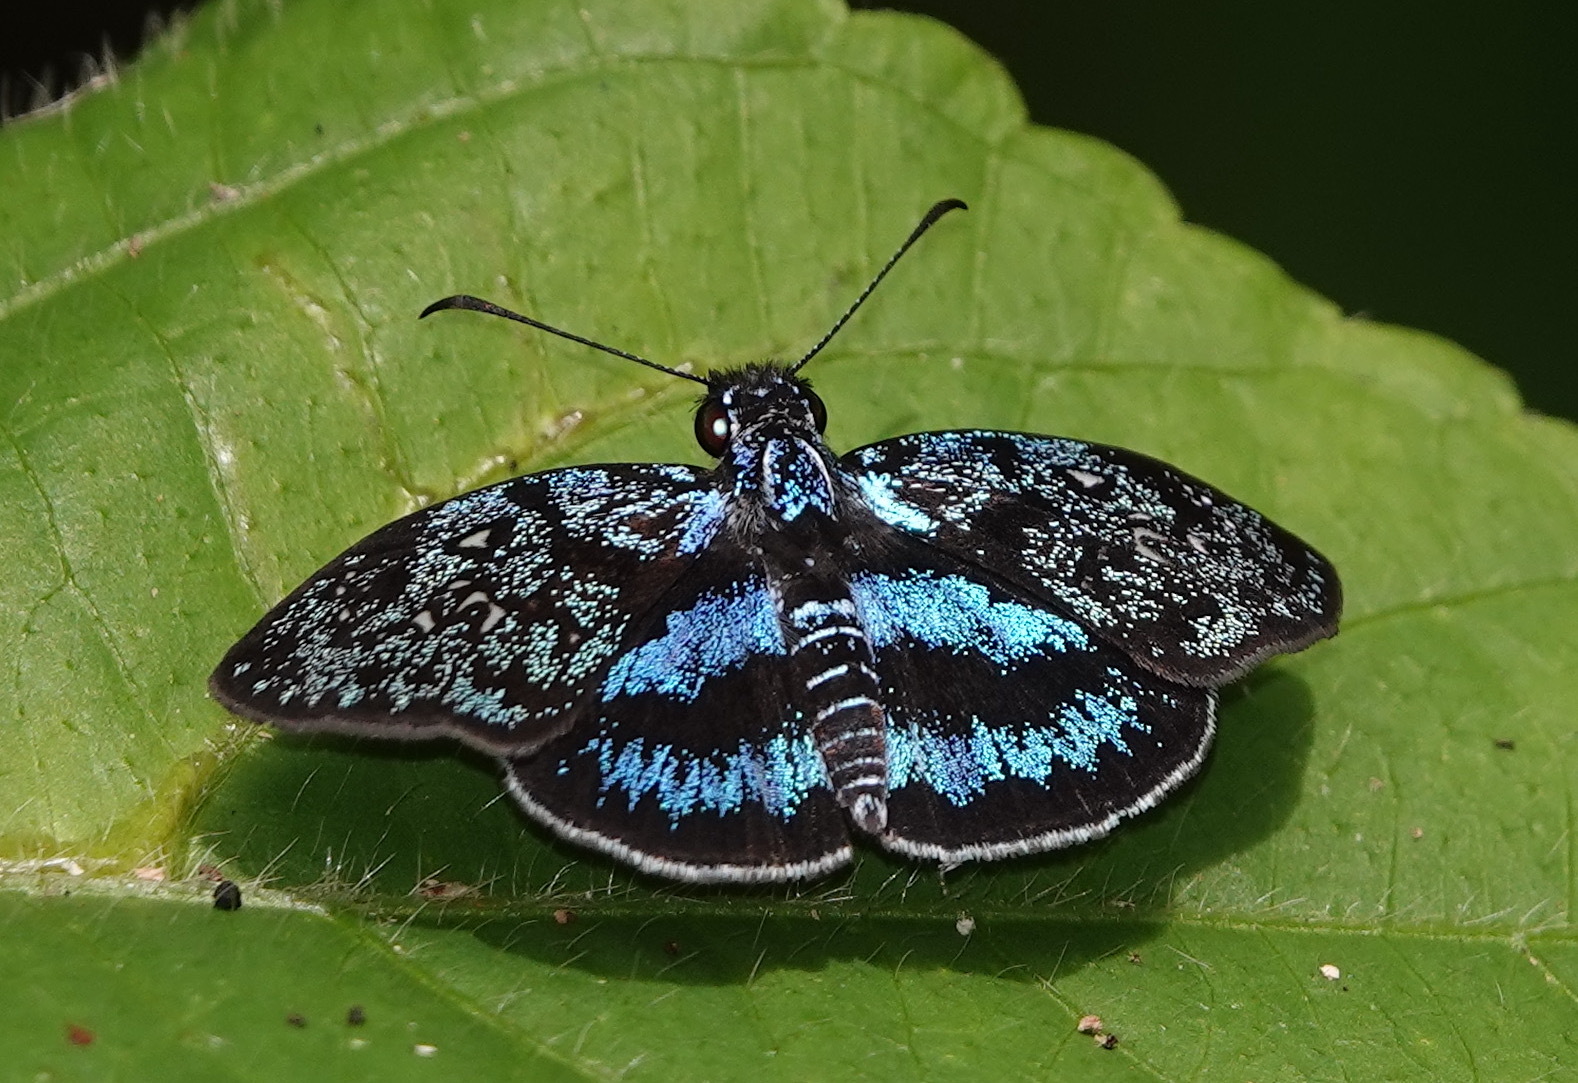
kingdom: Animalia
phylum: Arthropoda
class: Insecta
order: Lepidoptera
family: Hesperiidae
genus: Sophista
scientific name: Sophista festiva
